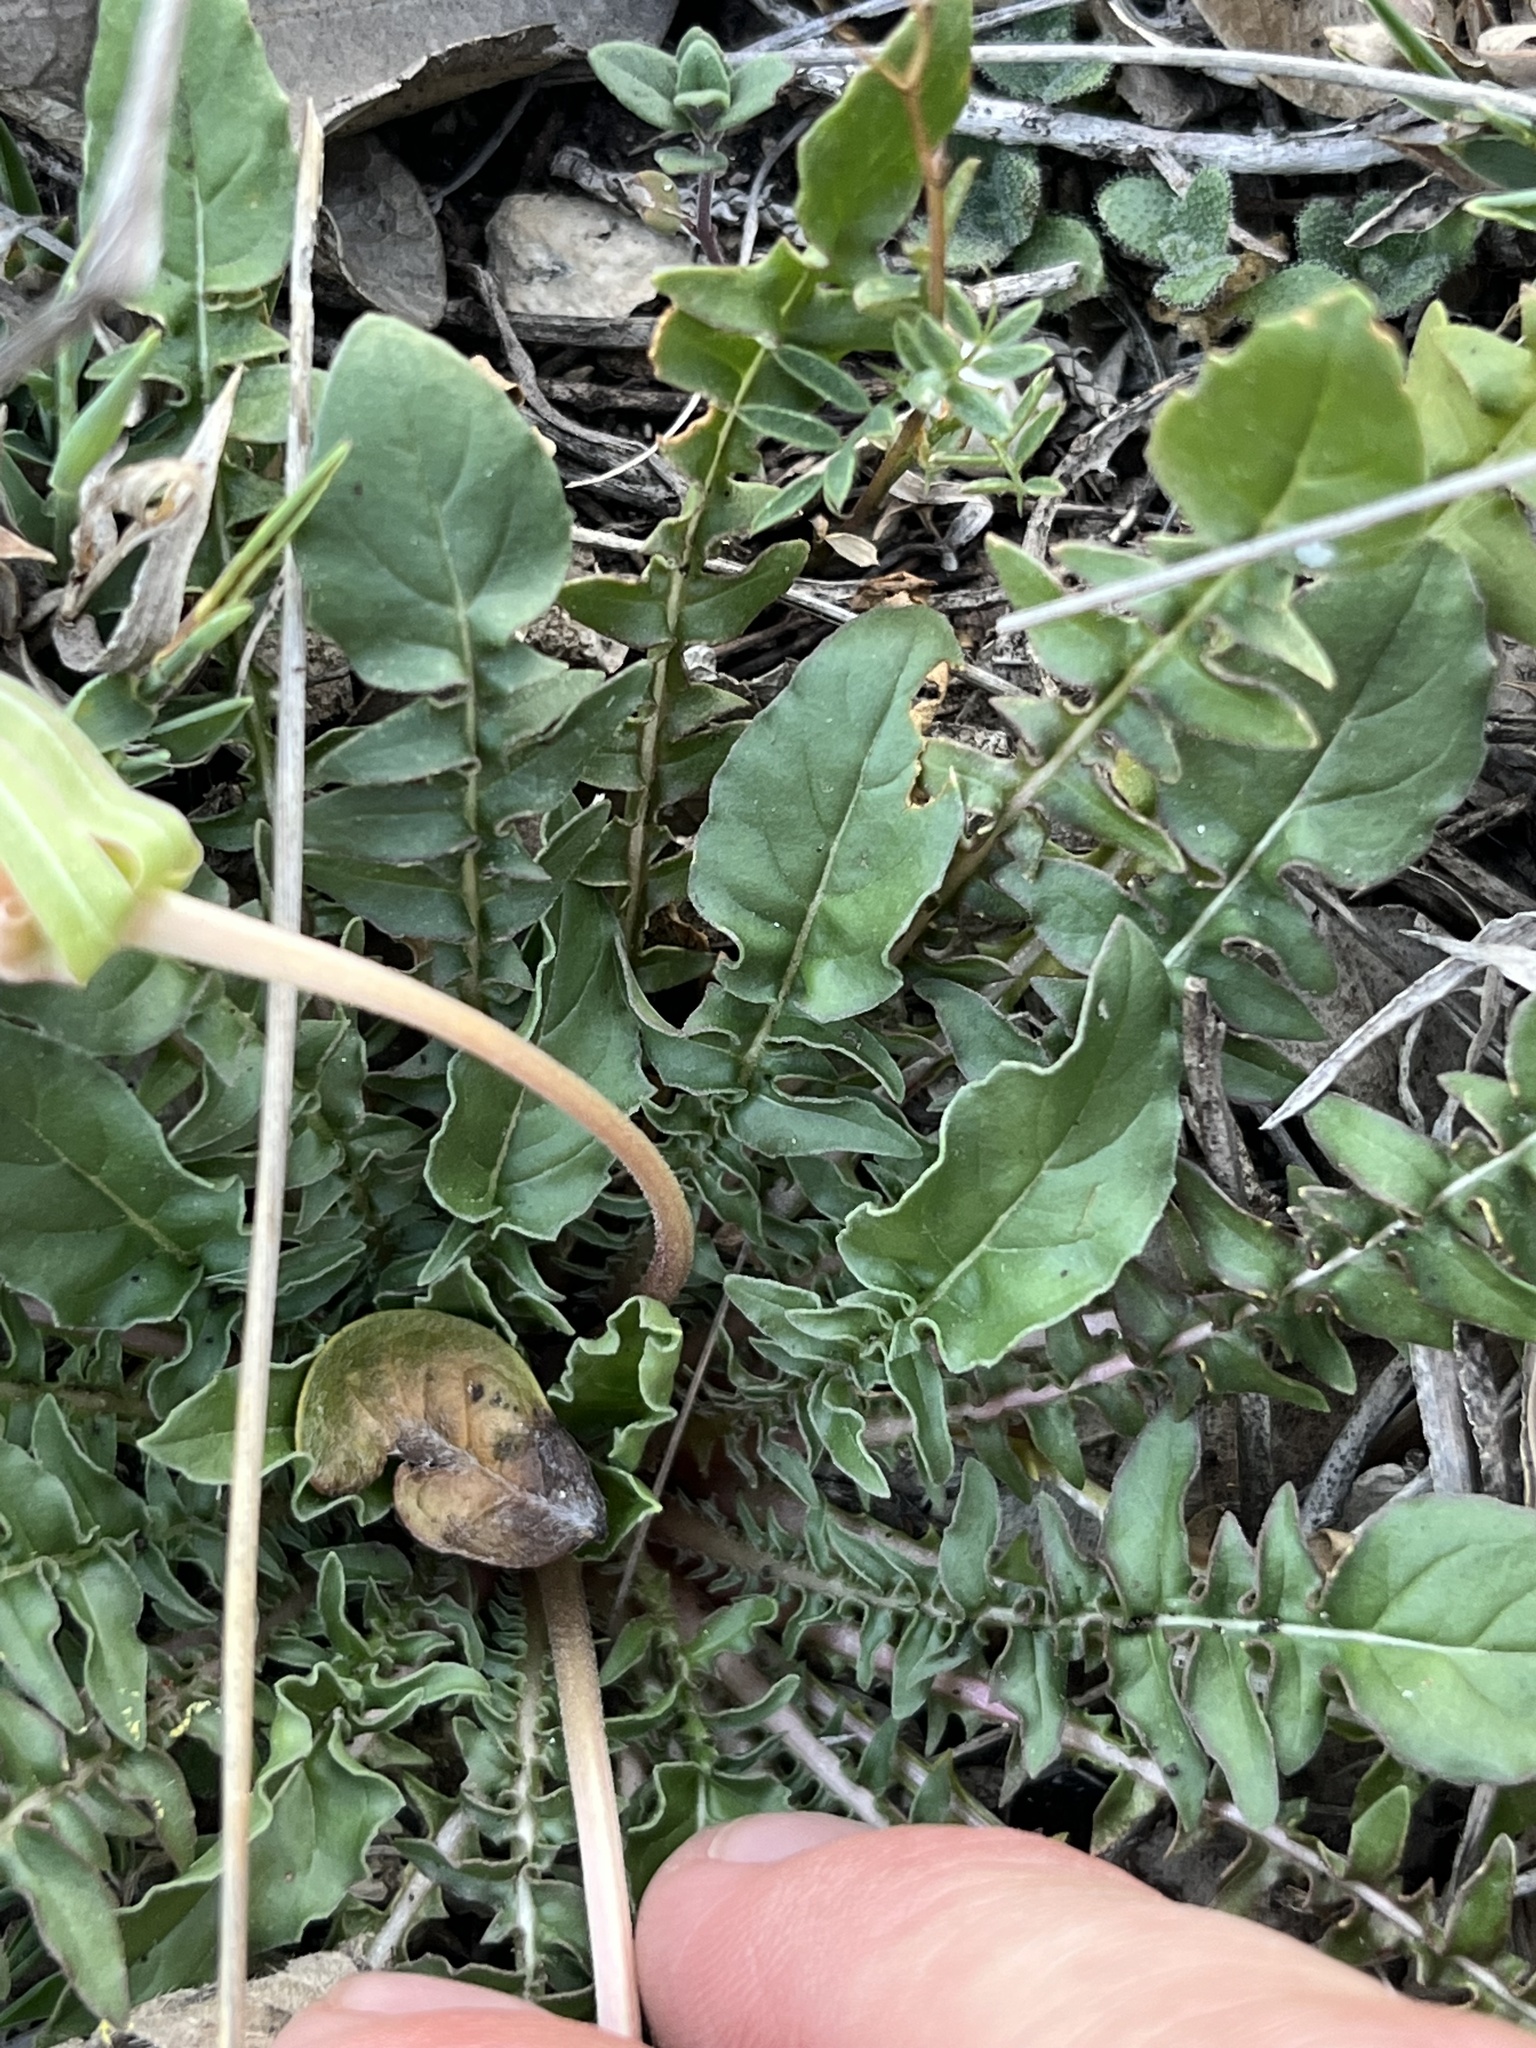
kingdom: Plantae
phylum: Tracheophyta
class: Magnoliopsida
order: Myrtales
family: Onagraceae
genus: Oenothera
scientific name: Oenothera triloba
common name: Sessile evening-primrose
